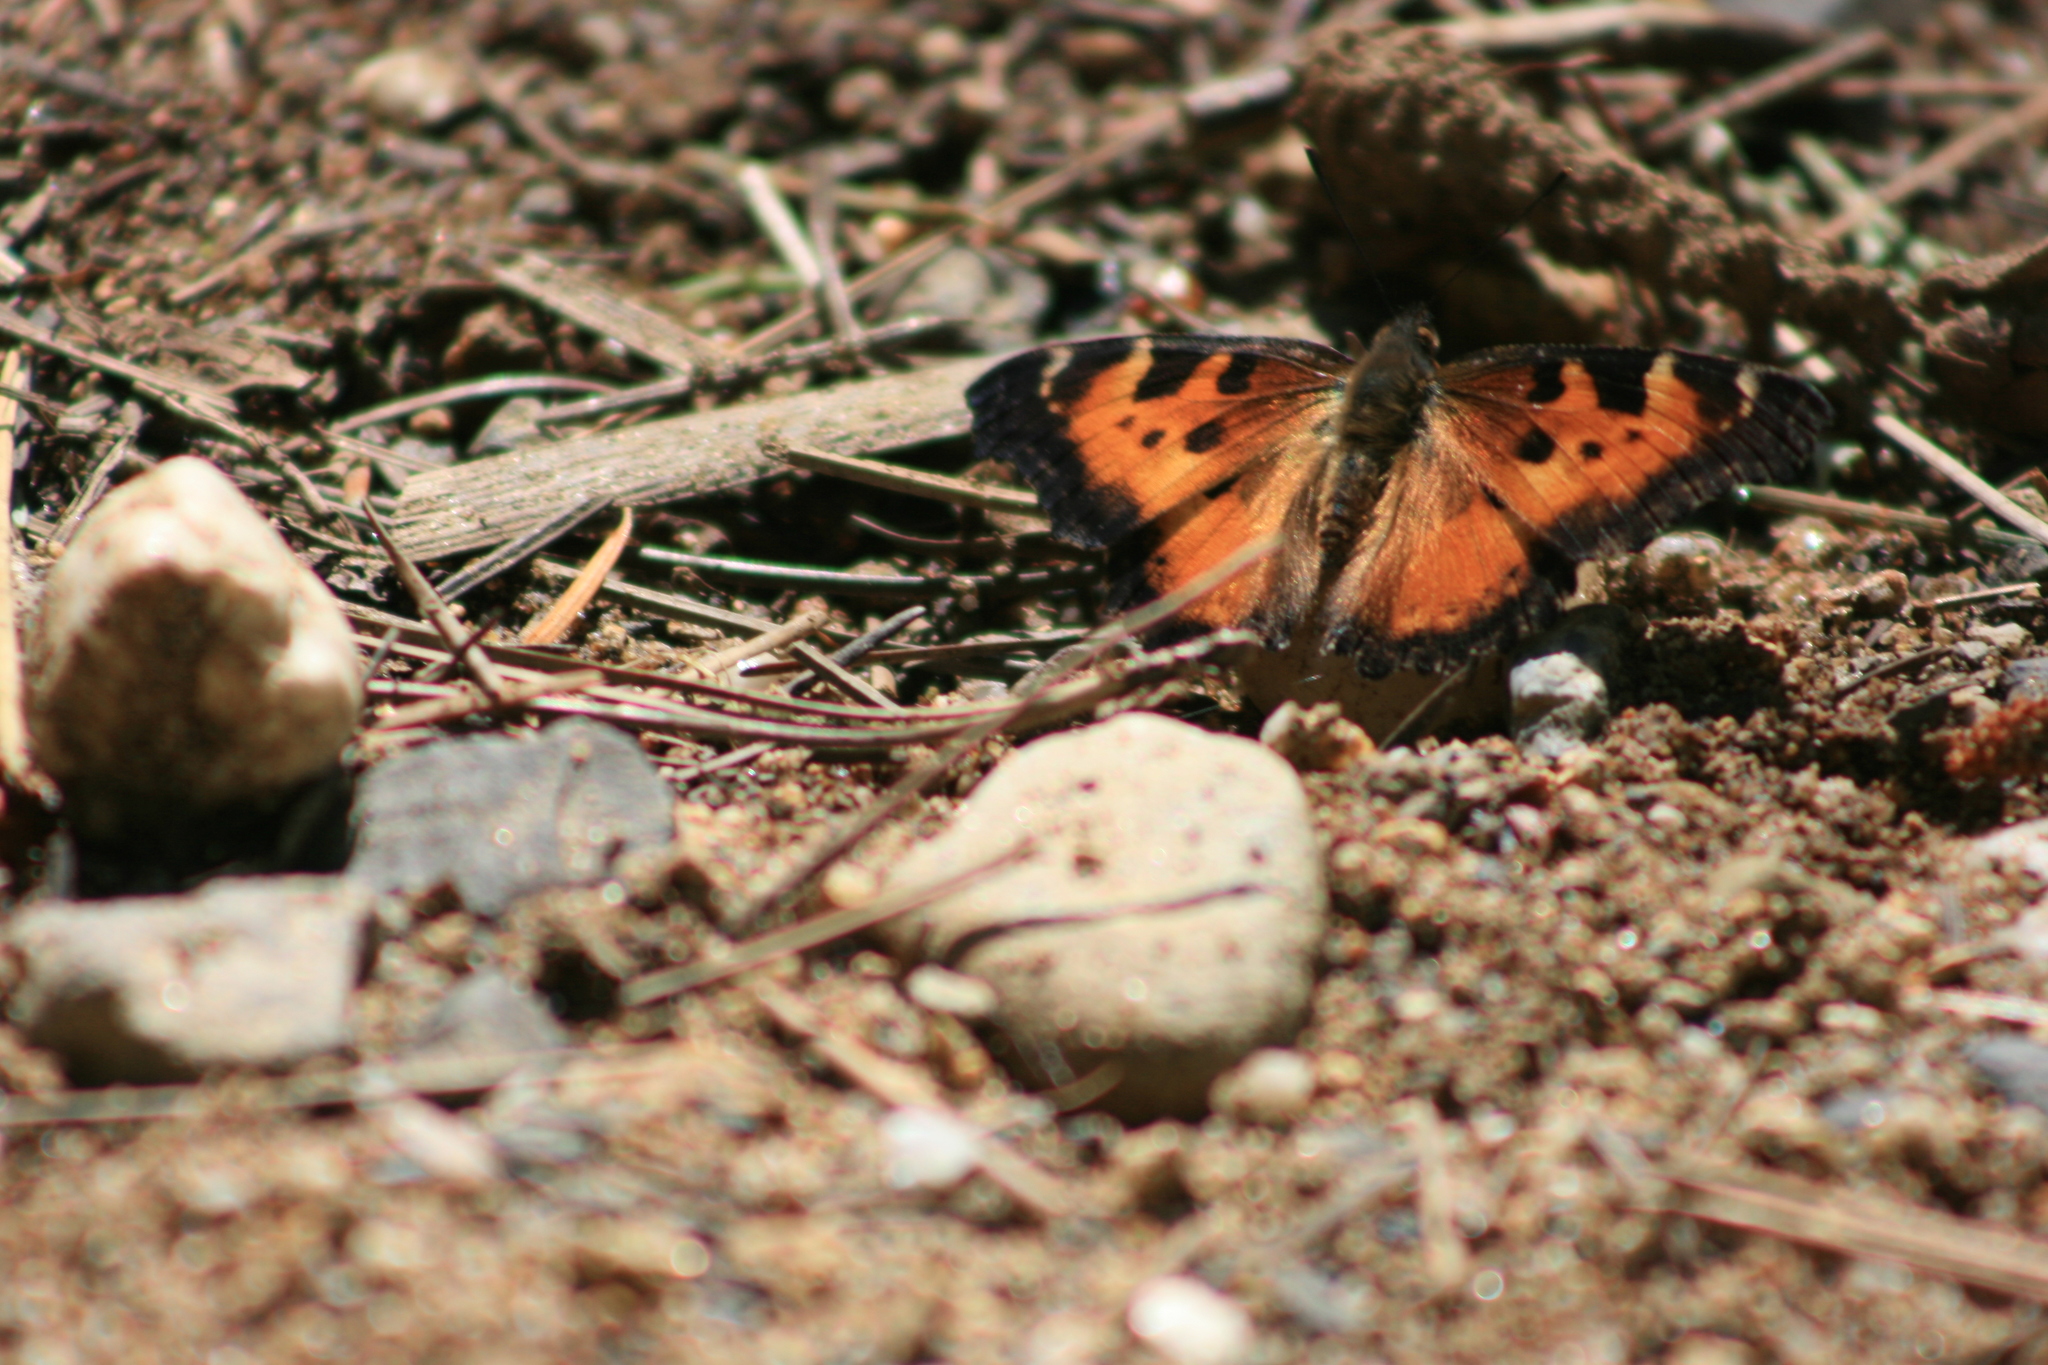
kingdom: Animalia
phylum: Arthropoda
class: Insecta
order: Lepidoptera
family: Nymphalidae
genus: Nymphalis
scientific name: Nymphalis californica
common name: California tortoiseshell
